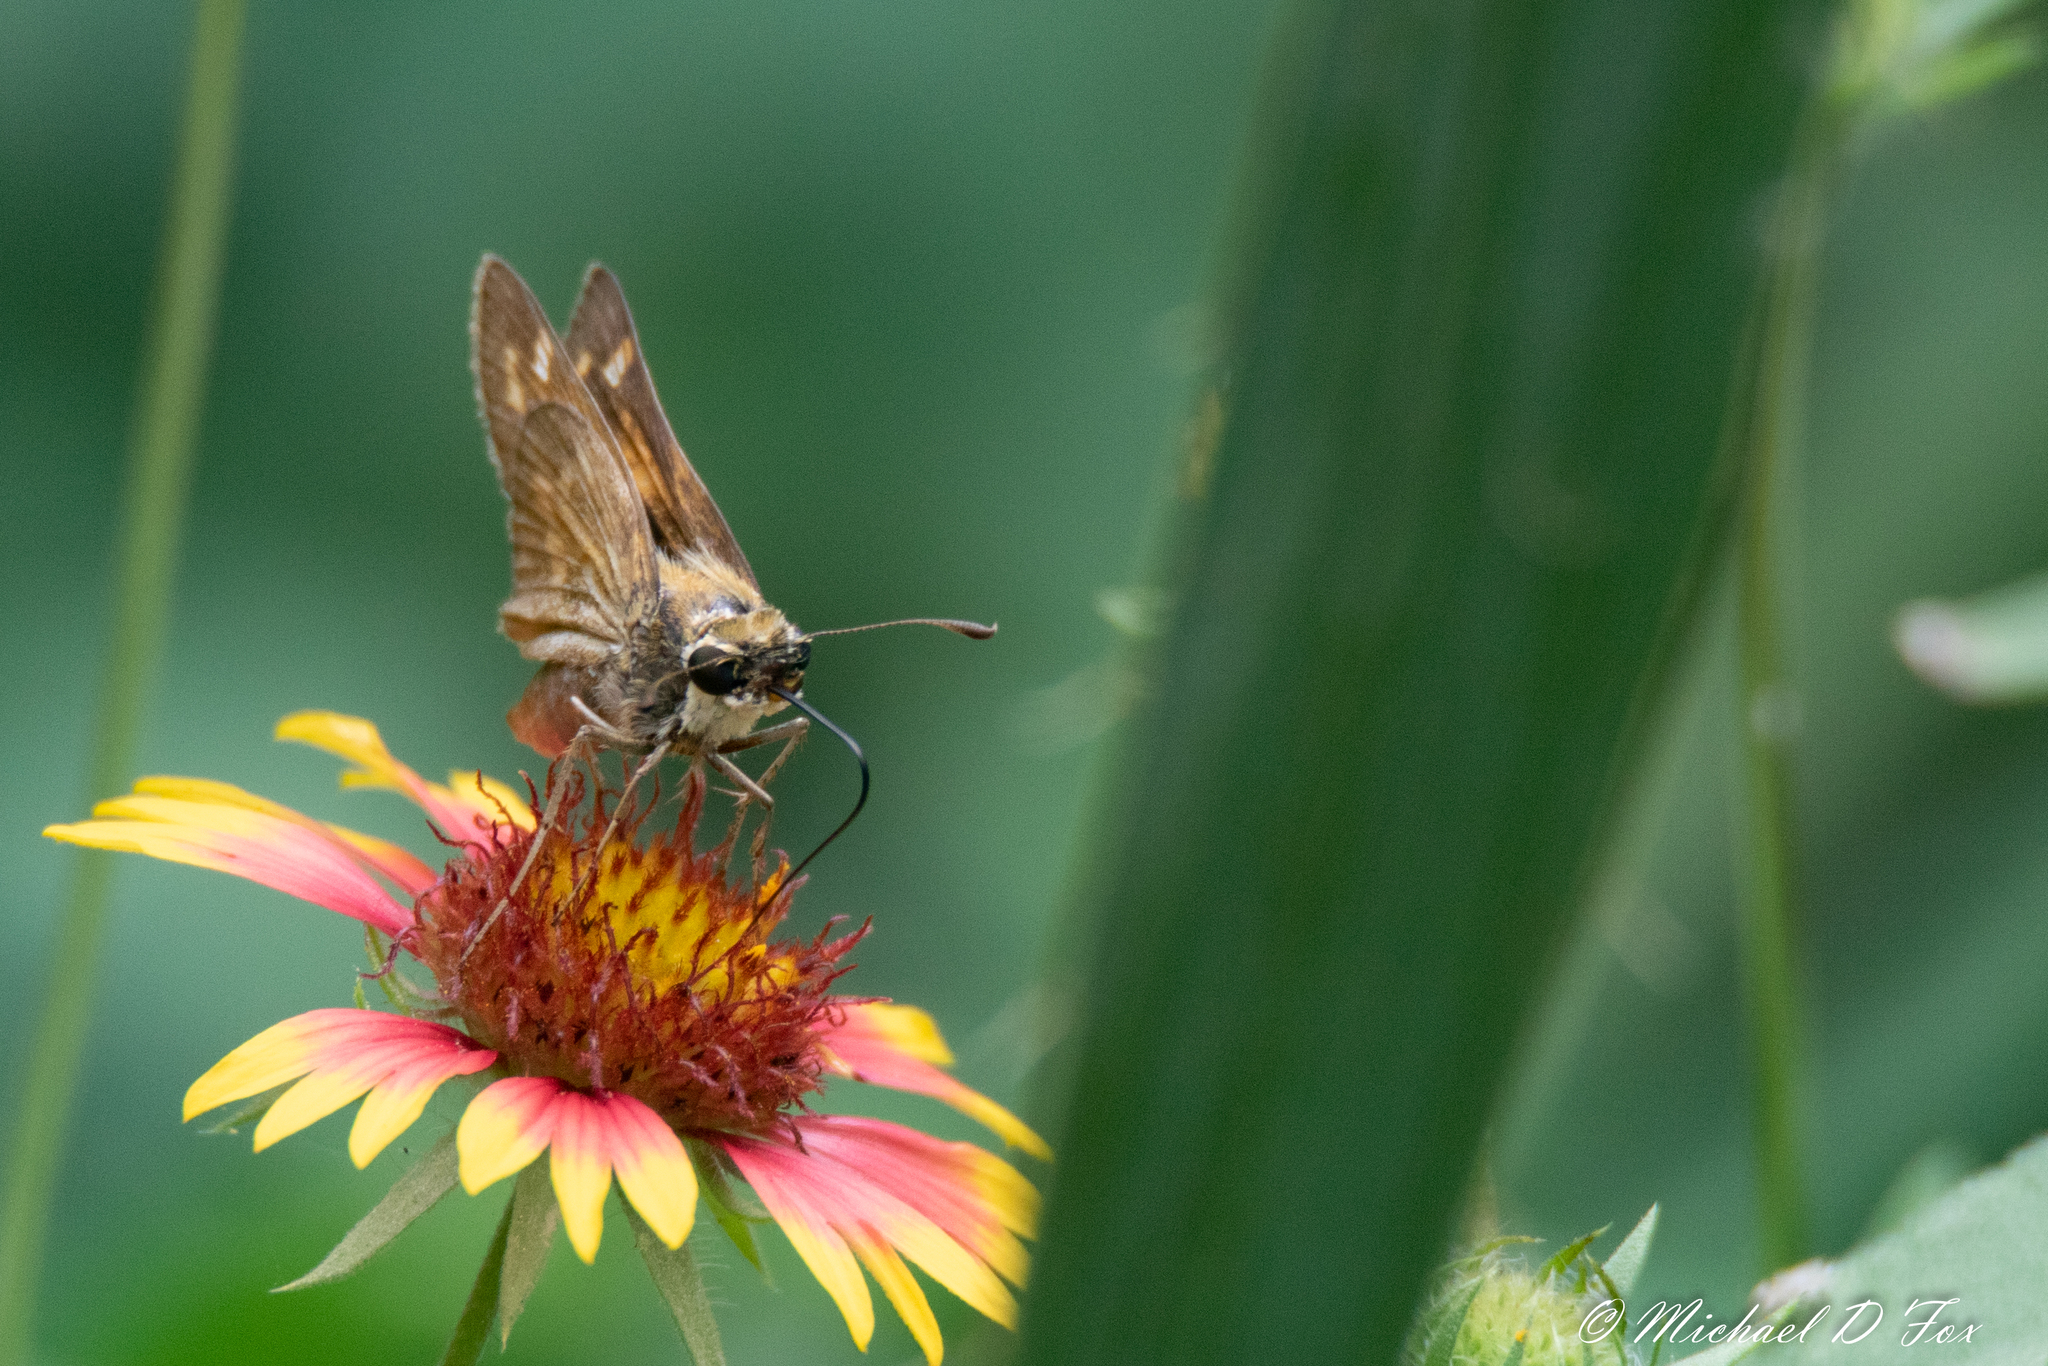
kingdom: Animalia
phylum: Arthropoda
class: Insecta
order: Lepidoptera
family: Hesperiidae
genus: Atalopedes
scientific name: Atalopedes
